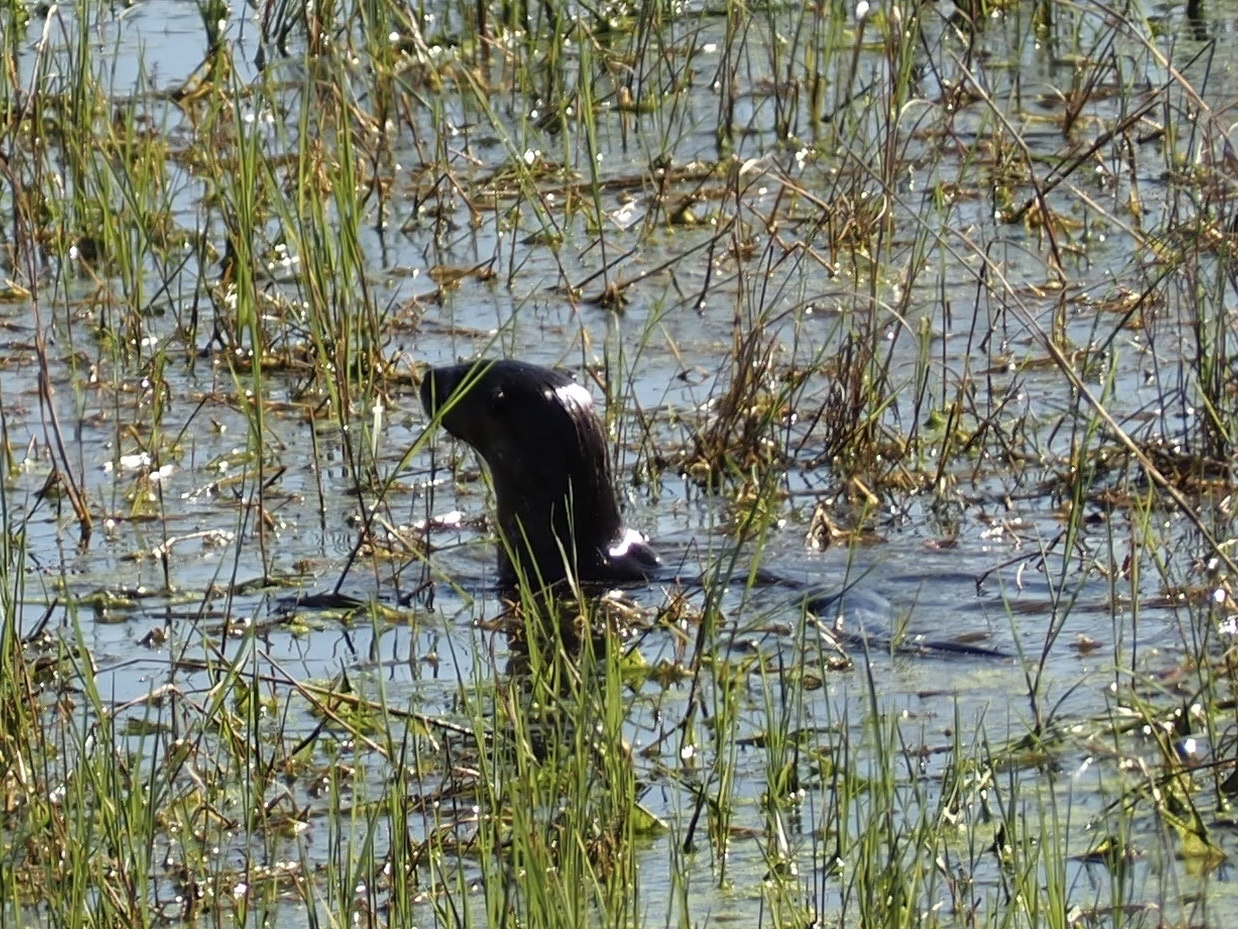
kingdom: Animalia
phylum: Chordata
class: Mammalia
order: Carnivora
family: Mustelidae
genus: Lontra
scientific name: Lontra canadensis
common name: North american river otter
